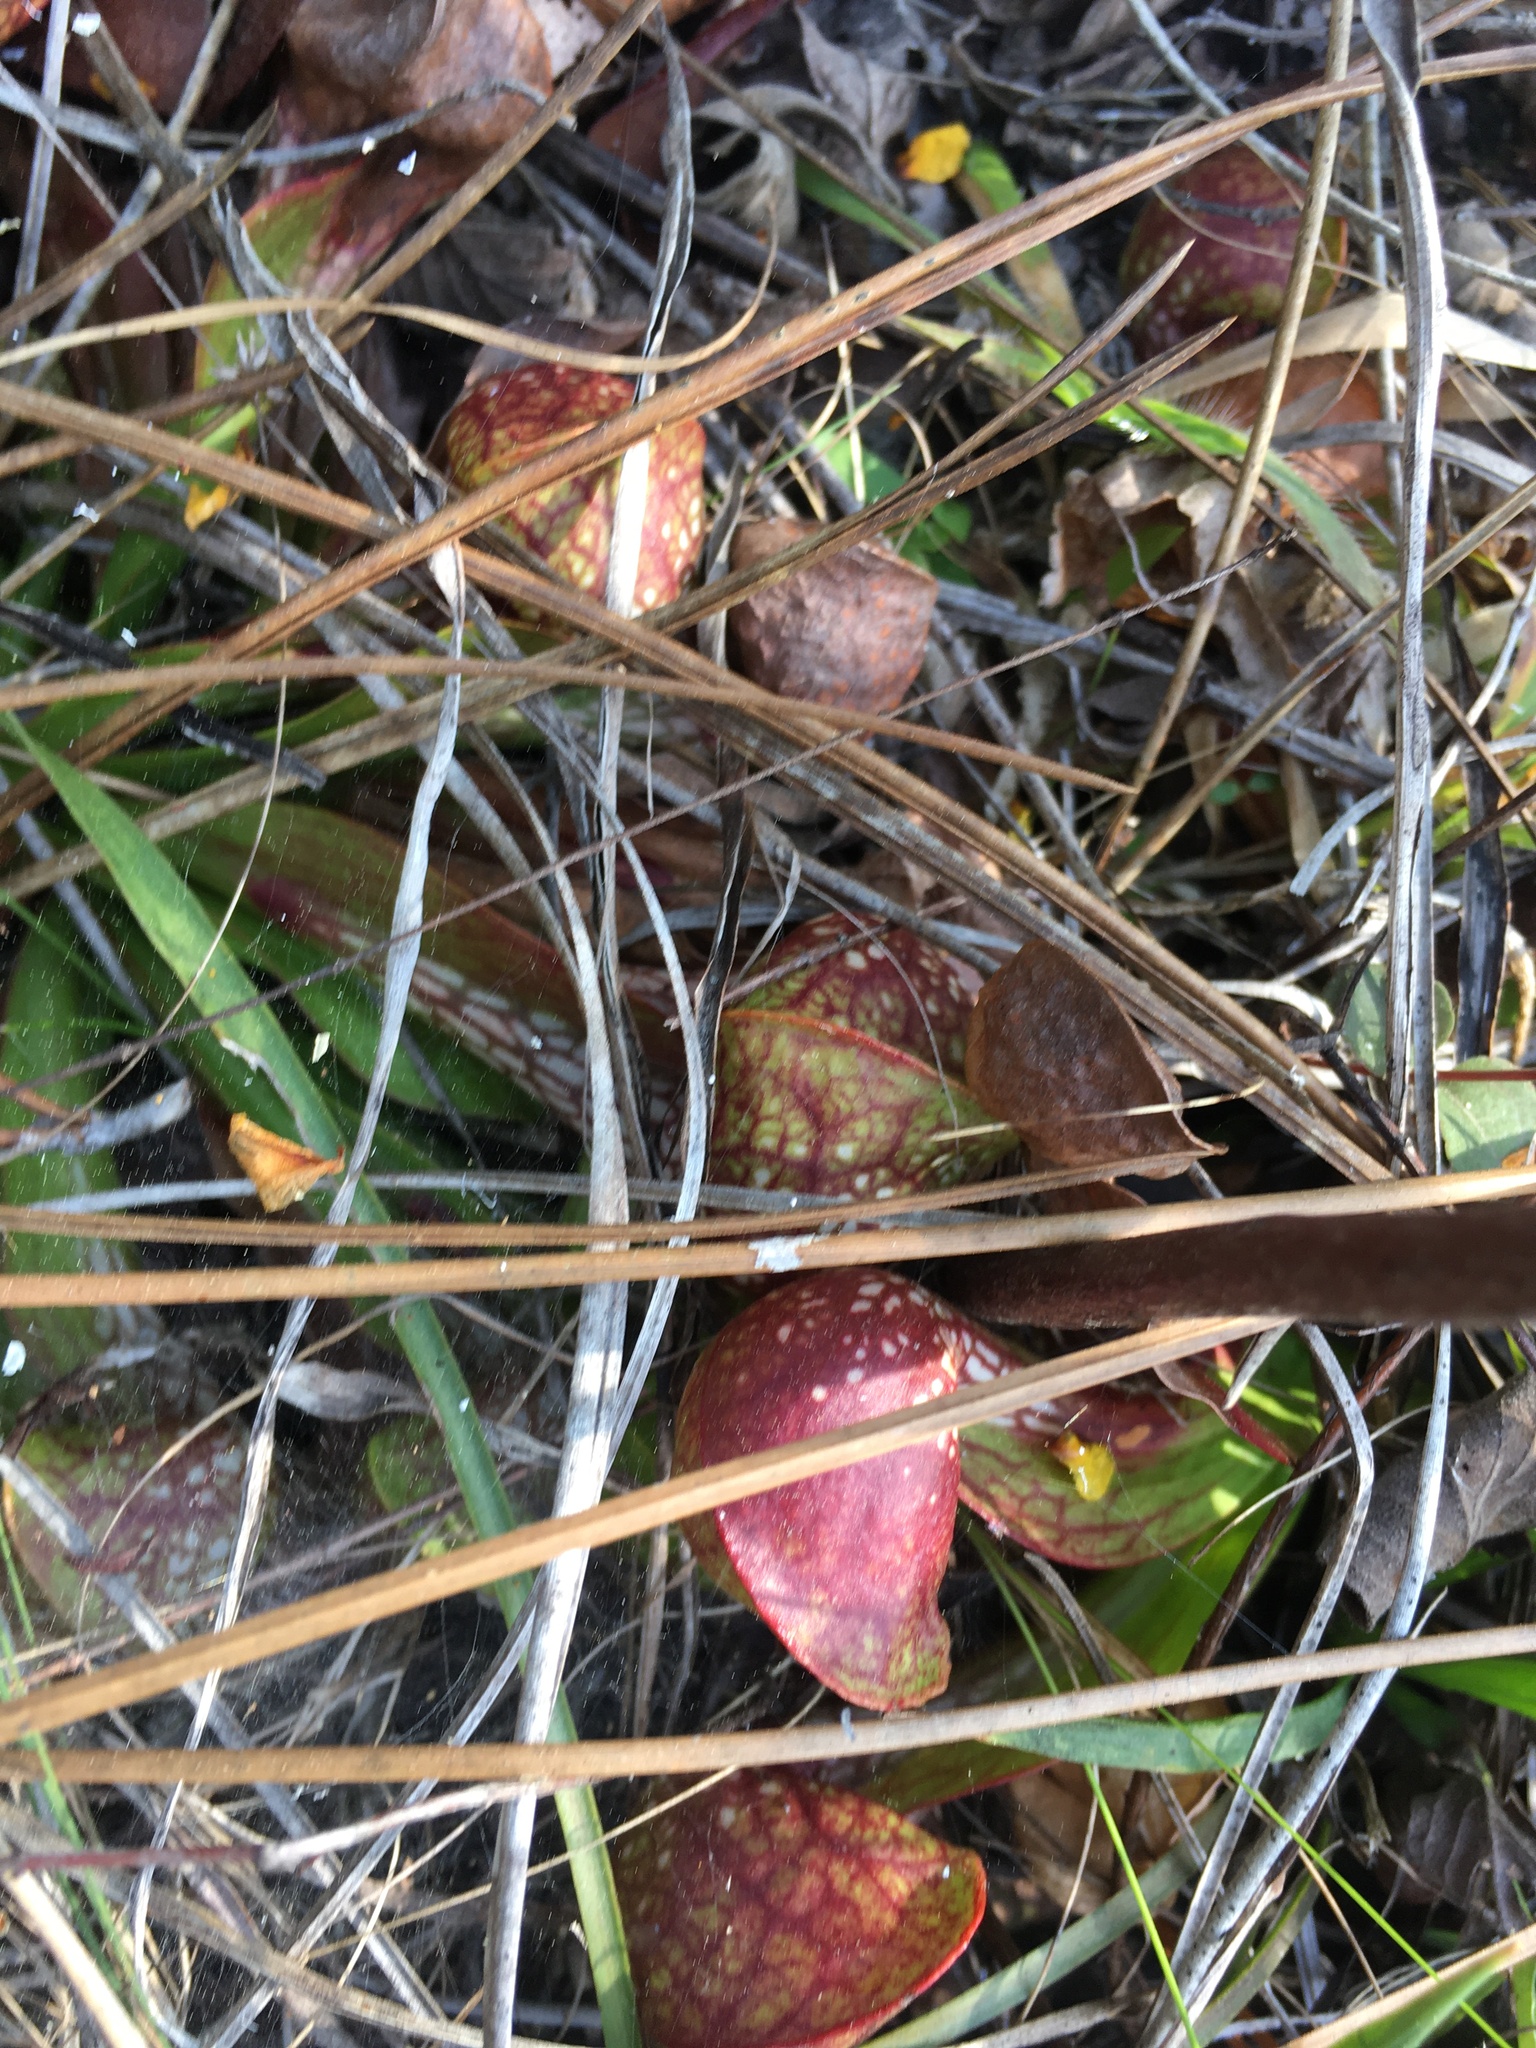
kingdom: Plantae
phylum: Tracheophyta
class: Magnoliopsida
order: Ericales
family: Sarraceniaceae
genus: Sarracenia
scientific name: Sarracenia psittacina
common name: Parrot pitcherplant
